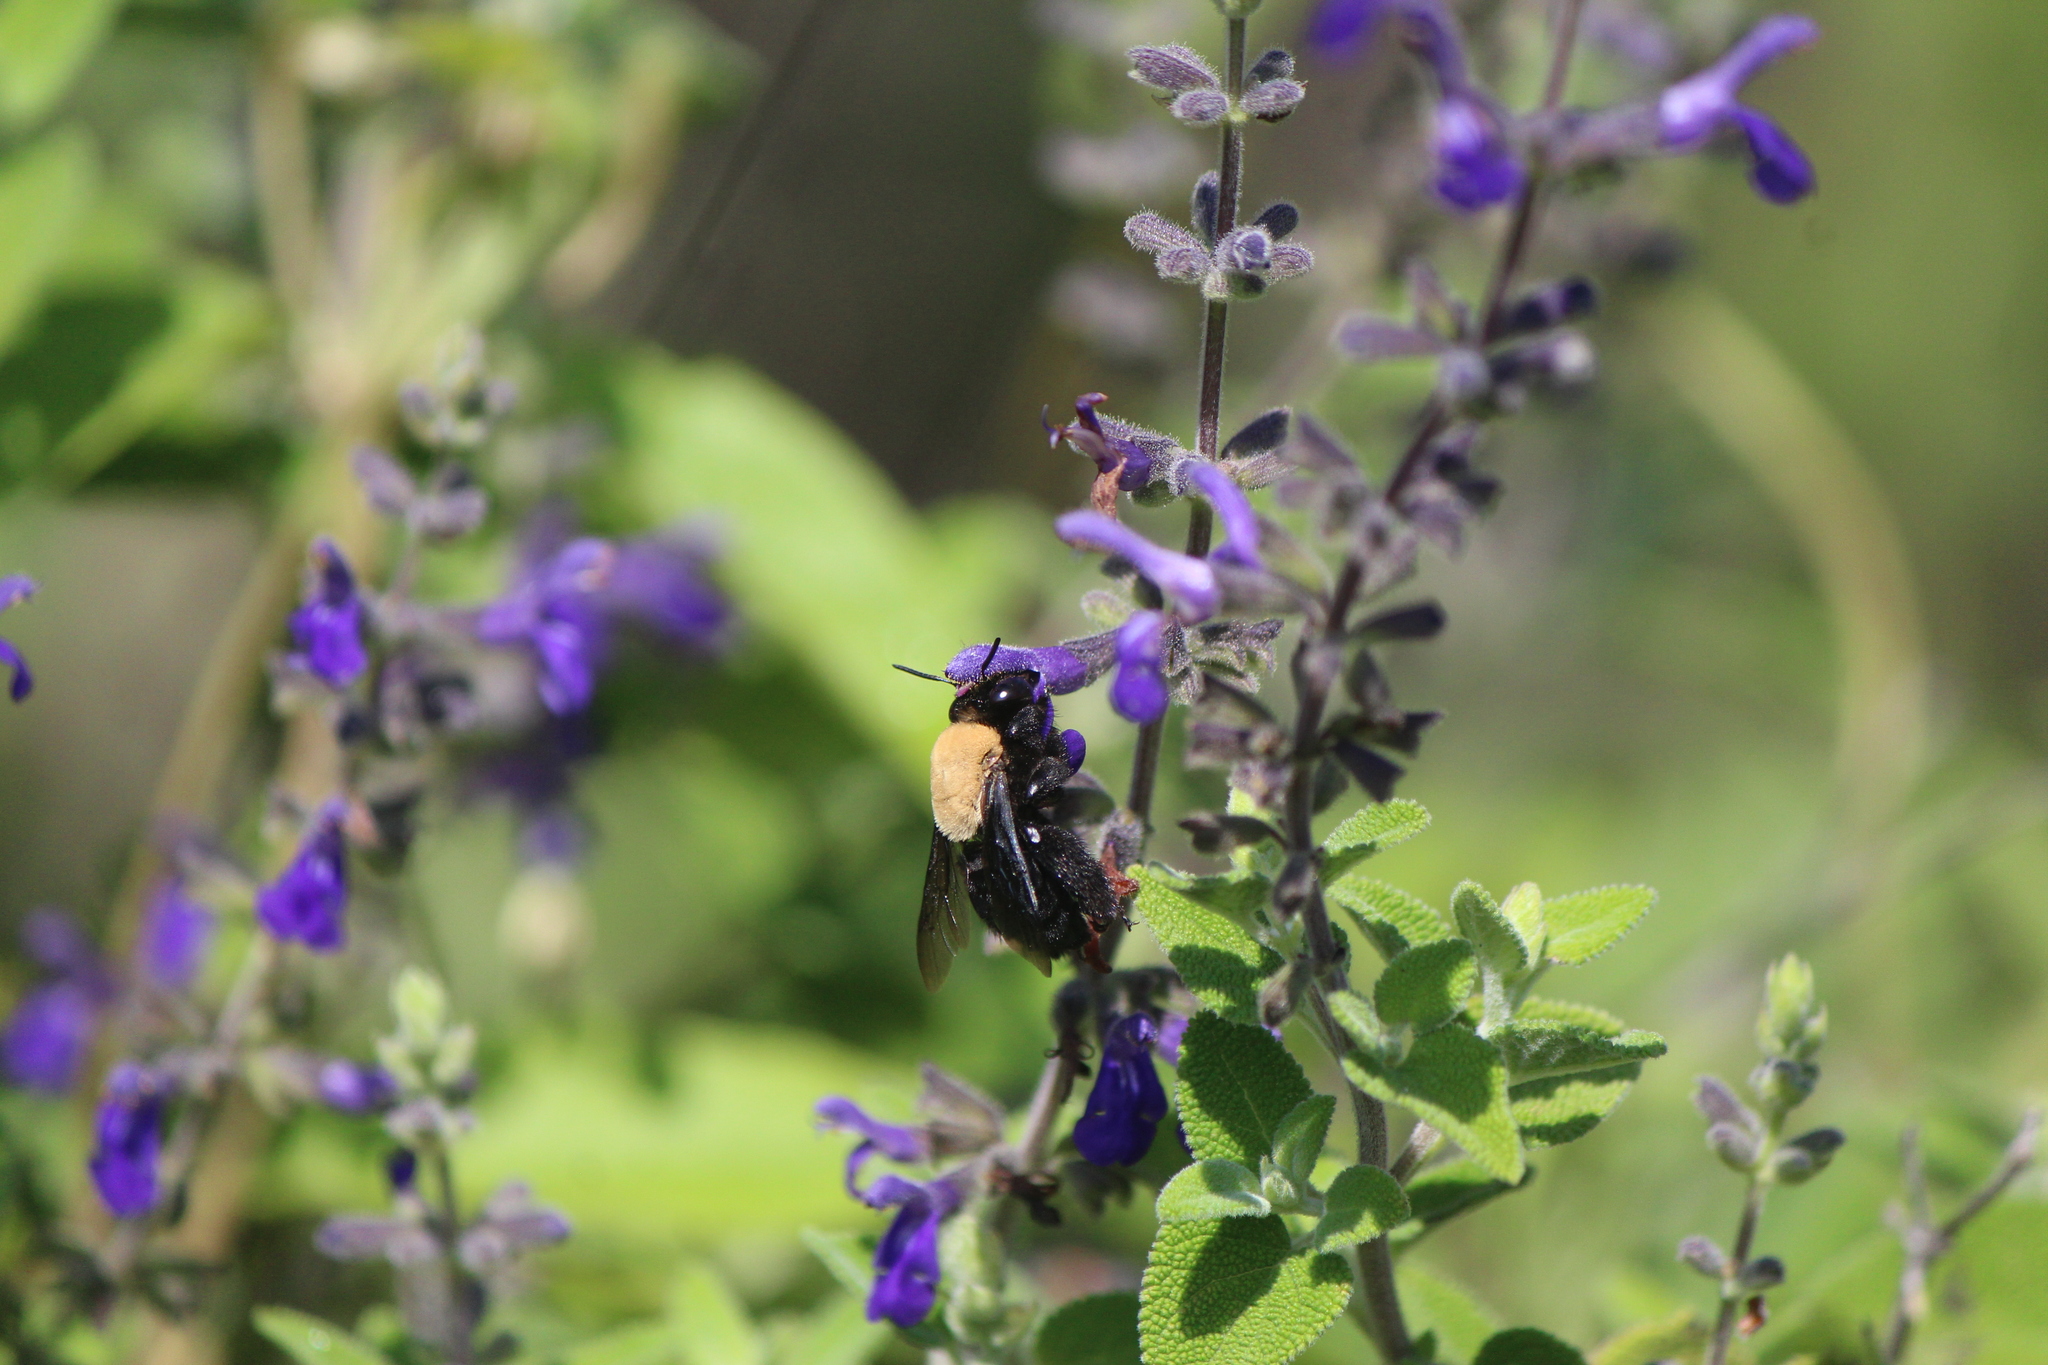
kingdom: Animalia
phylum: Arthropoda
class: Insecta
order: Hymenoptera
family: Apidae
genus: Centris
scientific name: Centris mexicana
